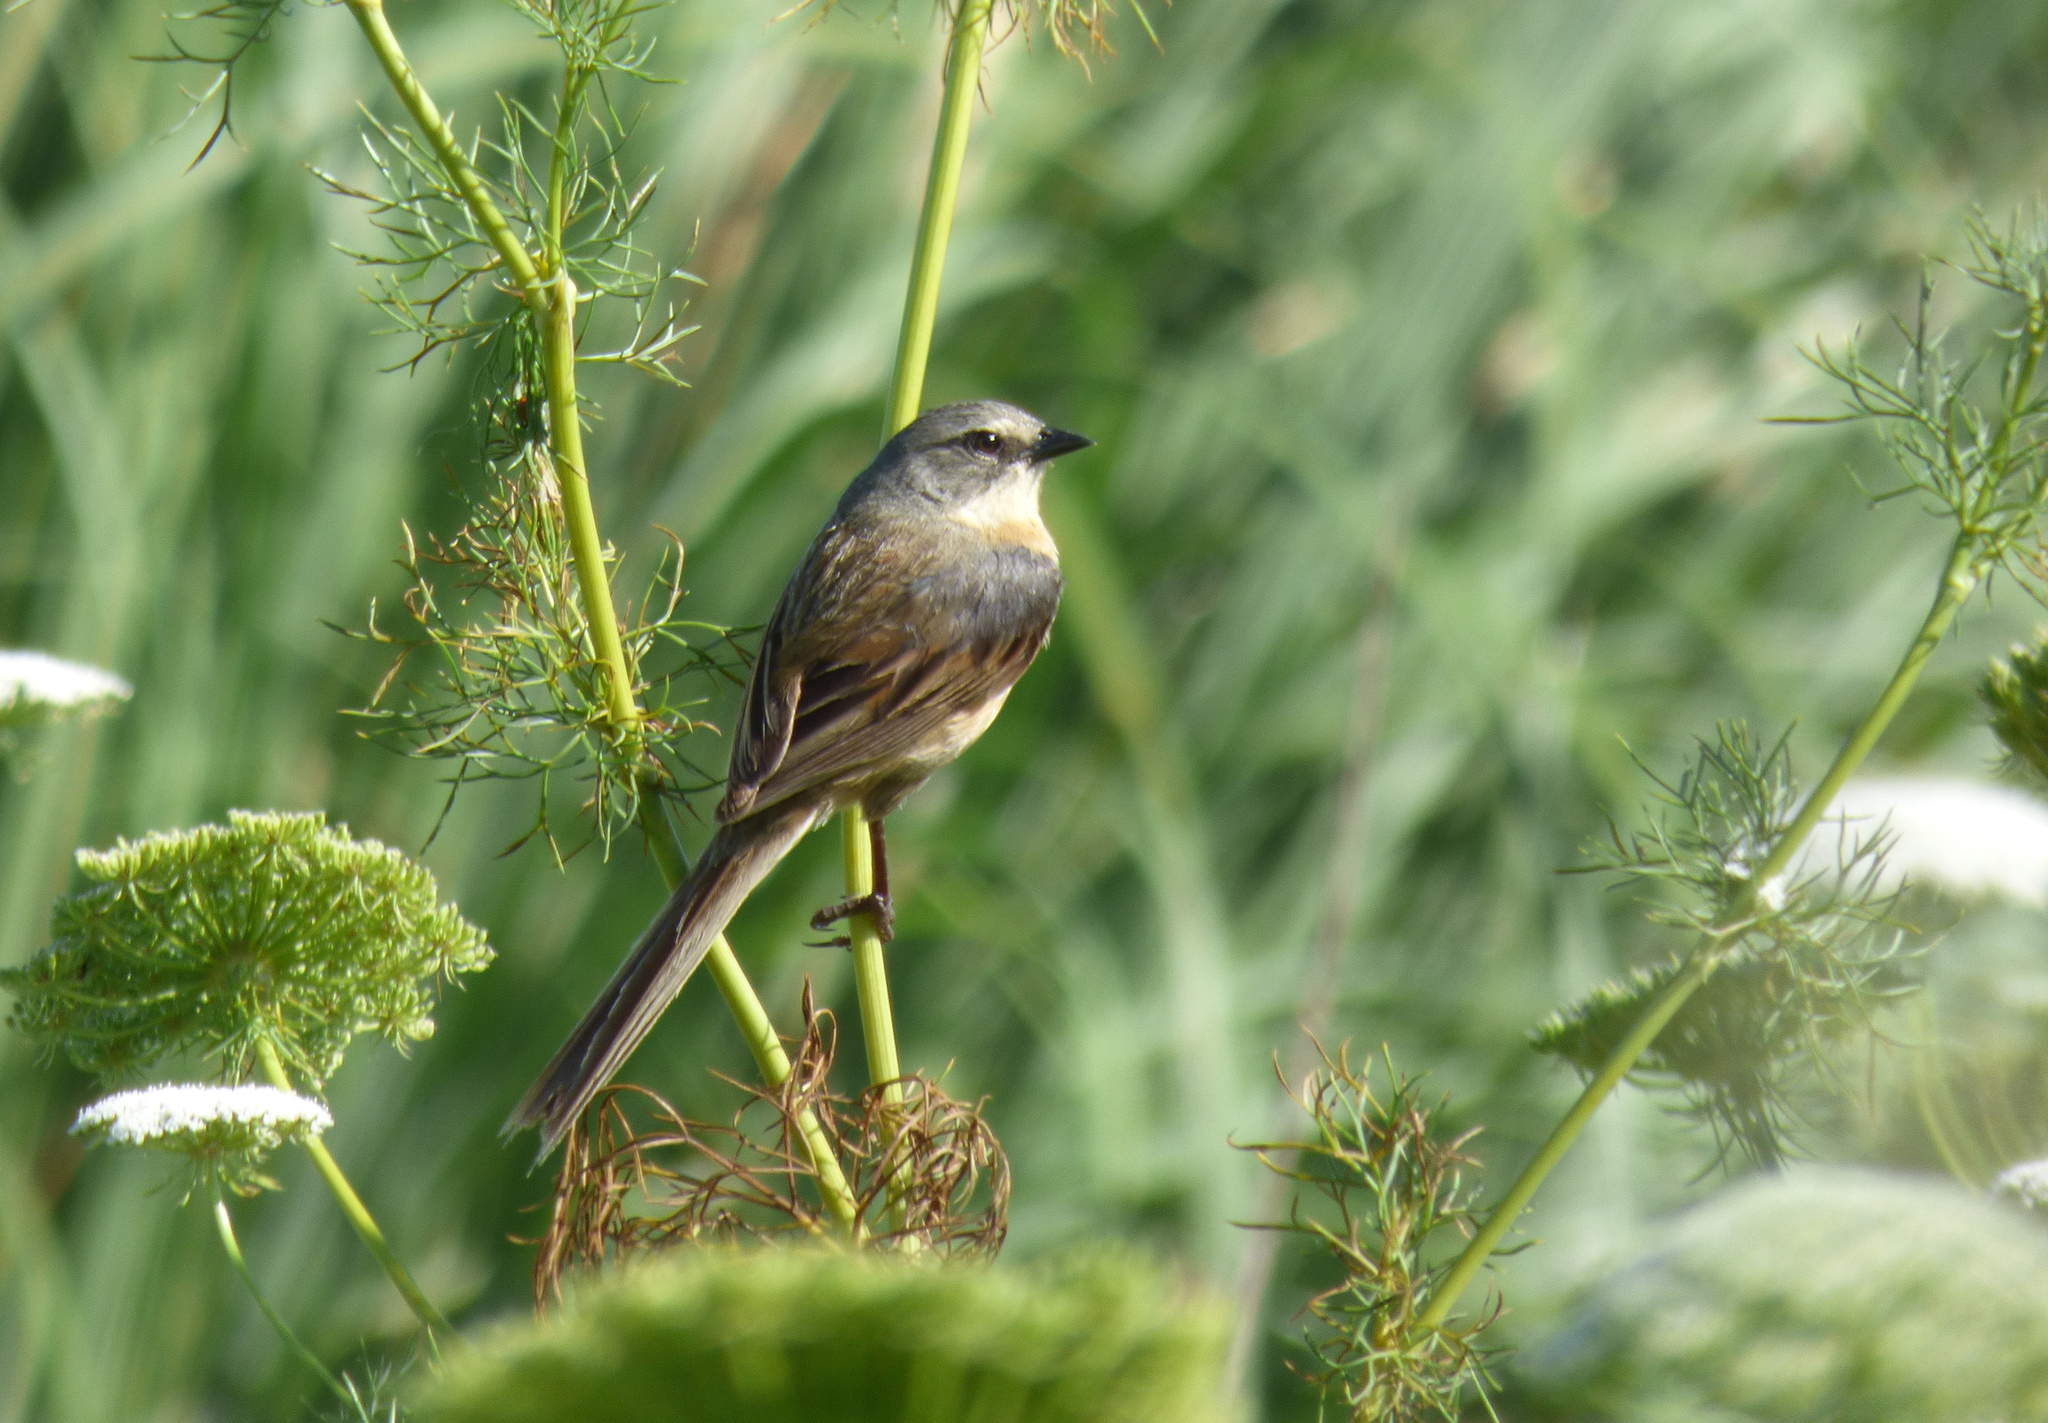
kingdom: Animalia
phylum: Chordata
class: Aves
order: Passeriformes
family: Thraupidae
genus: Donacospiza
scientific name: Donacospiza albifrons
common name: Long-tailed reed finch
